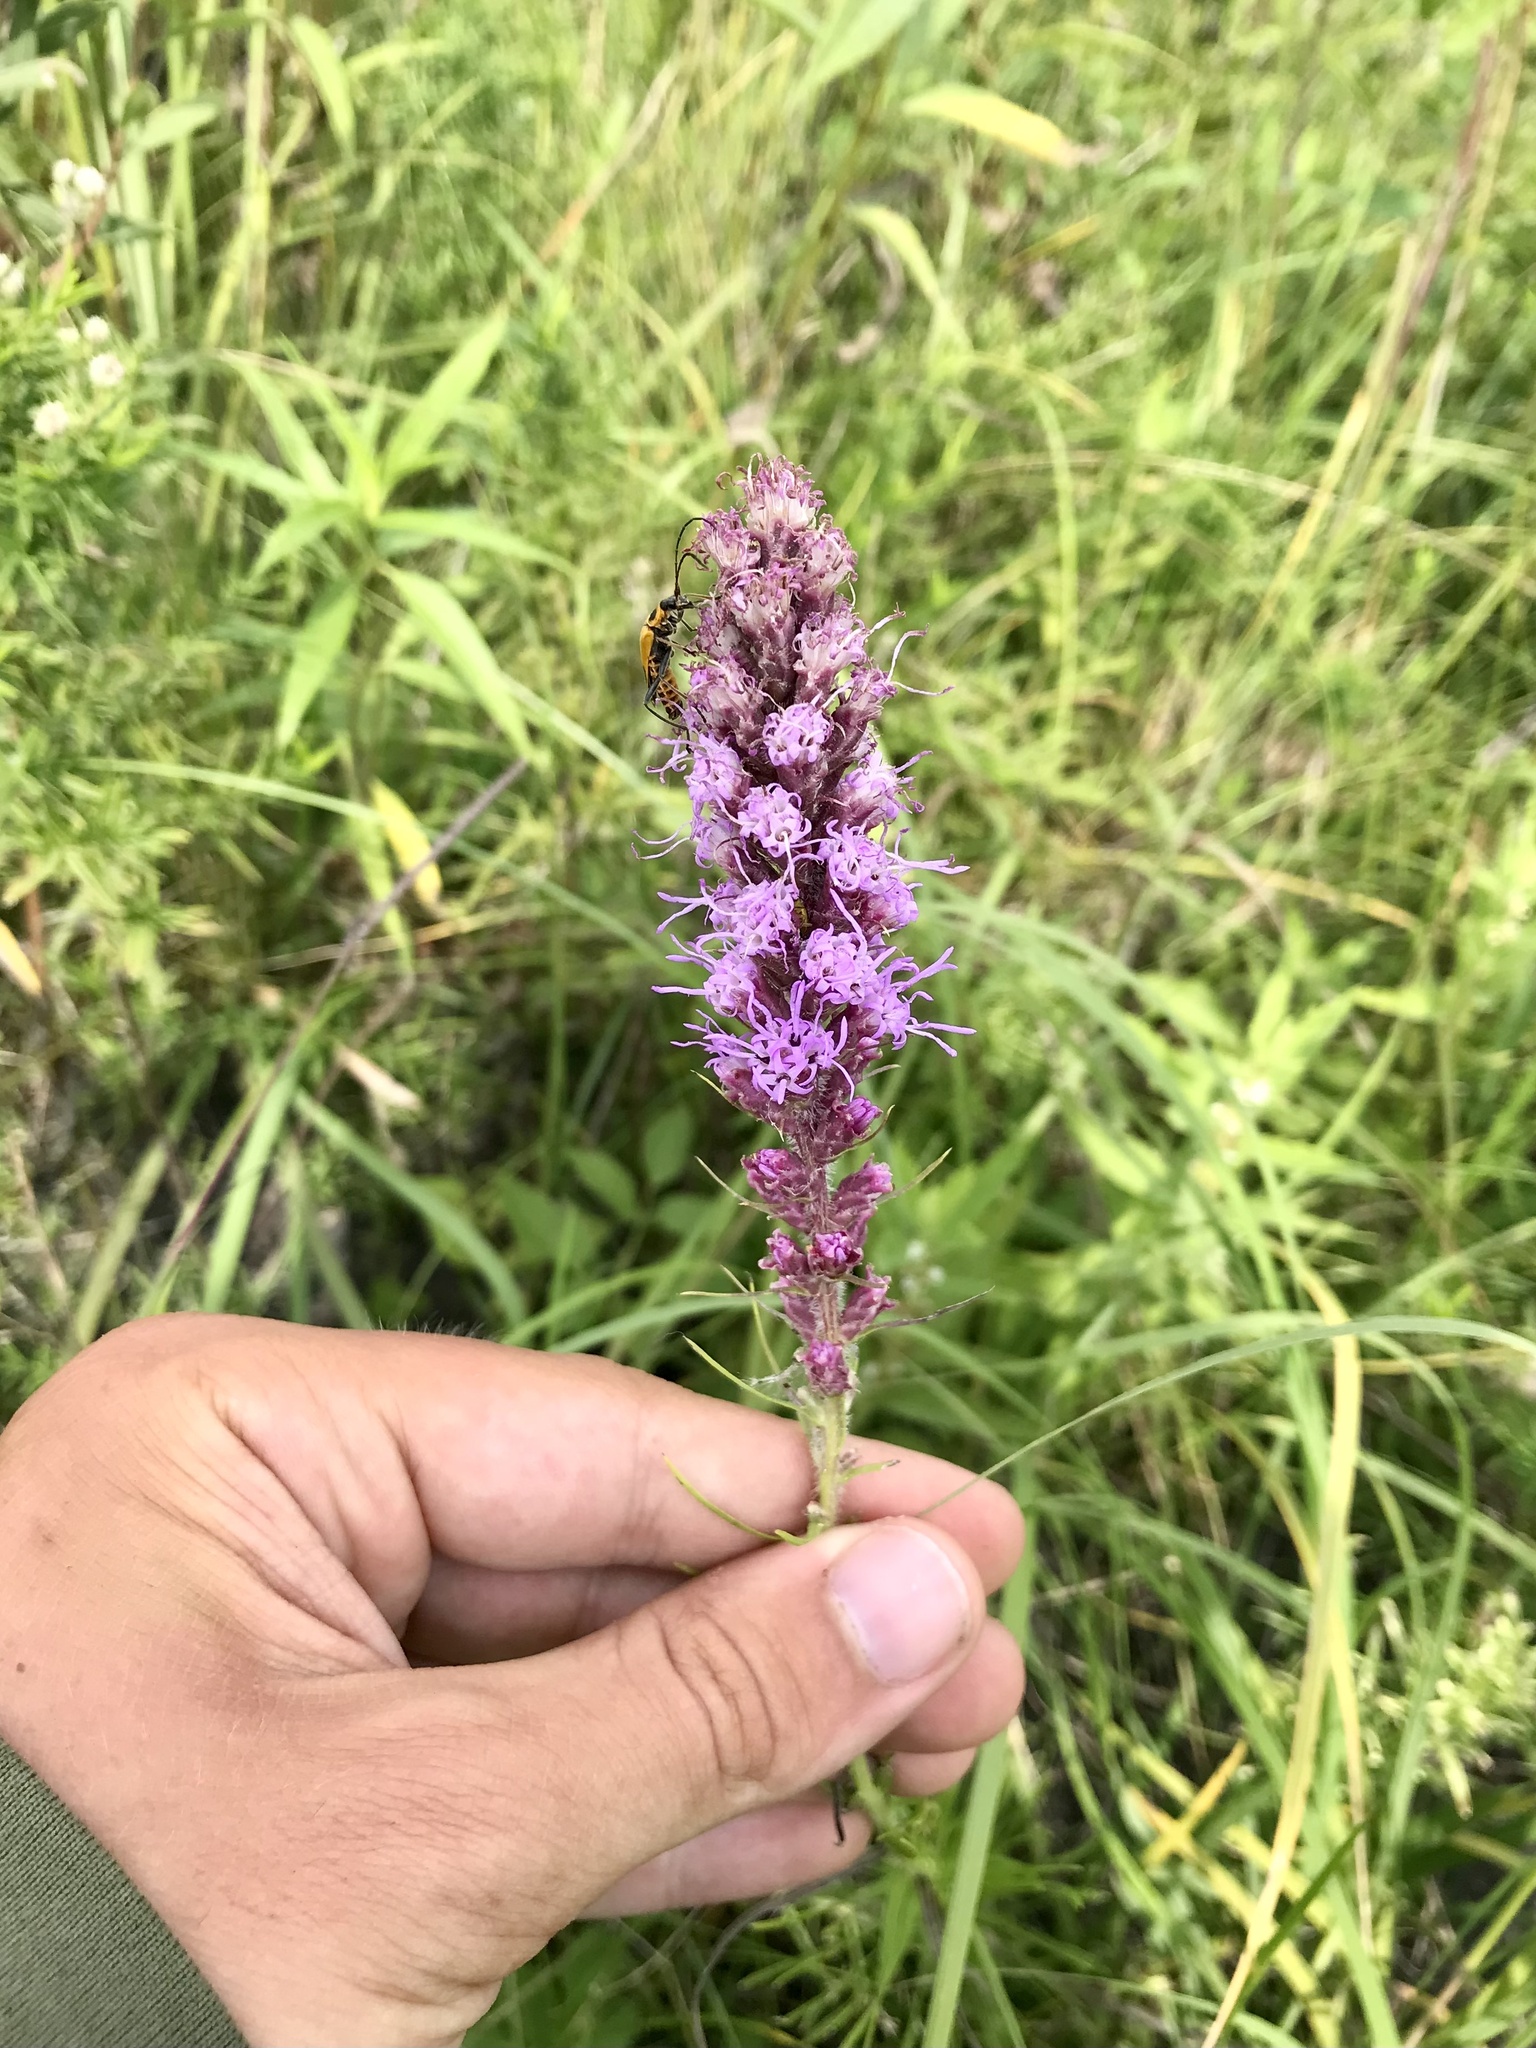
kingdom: Plantae
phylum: Tracheophyta
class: Magnoliopsida
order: Asterales
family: Asteraceae
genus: Liatris
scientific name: Liatris pycnostachya
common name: Cattail gayfeather
